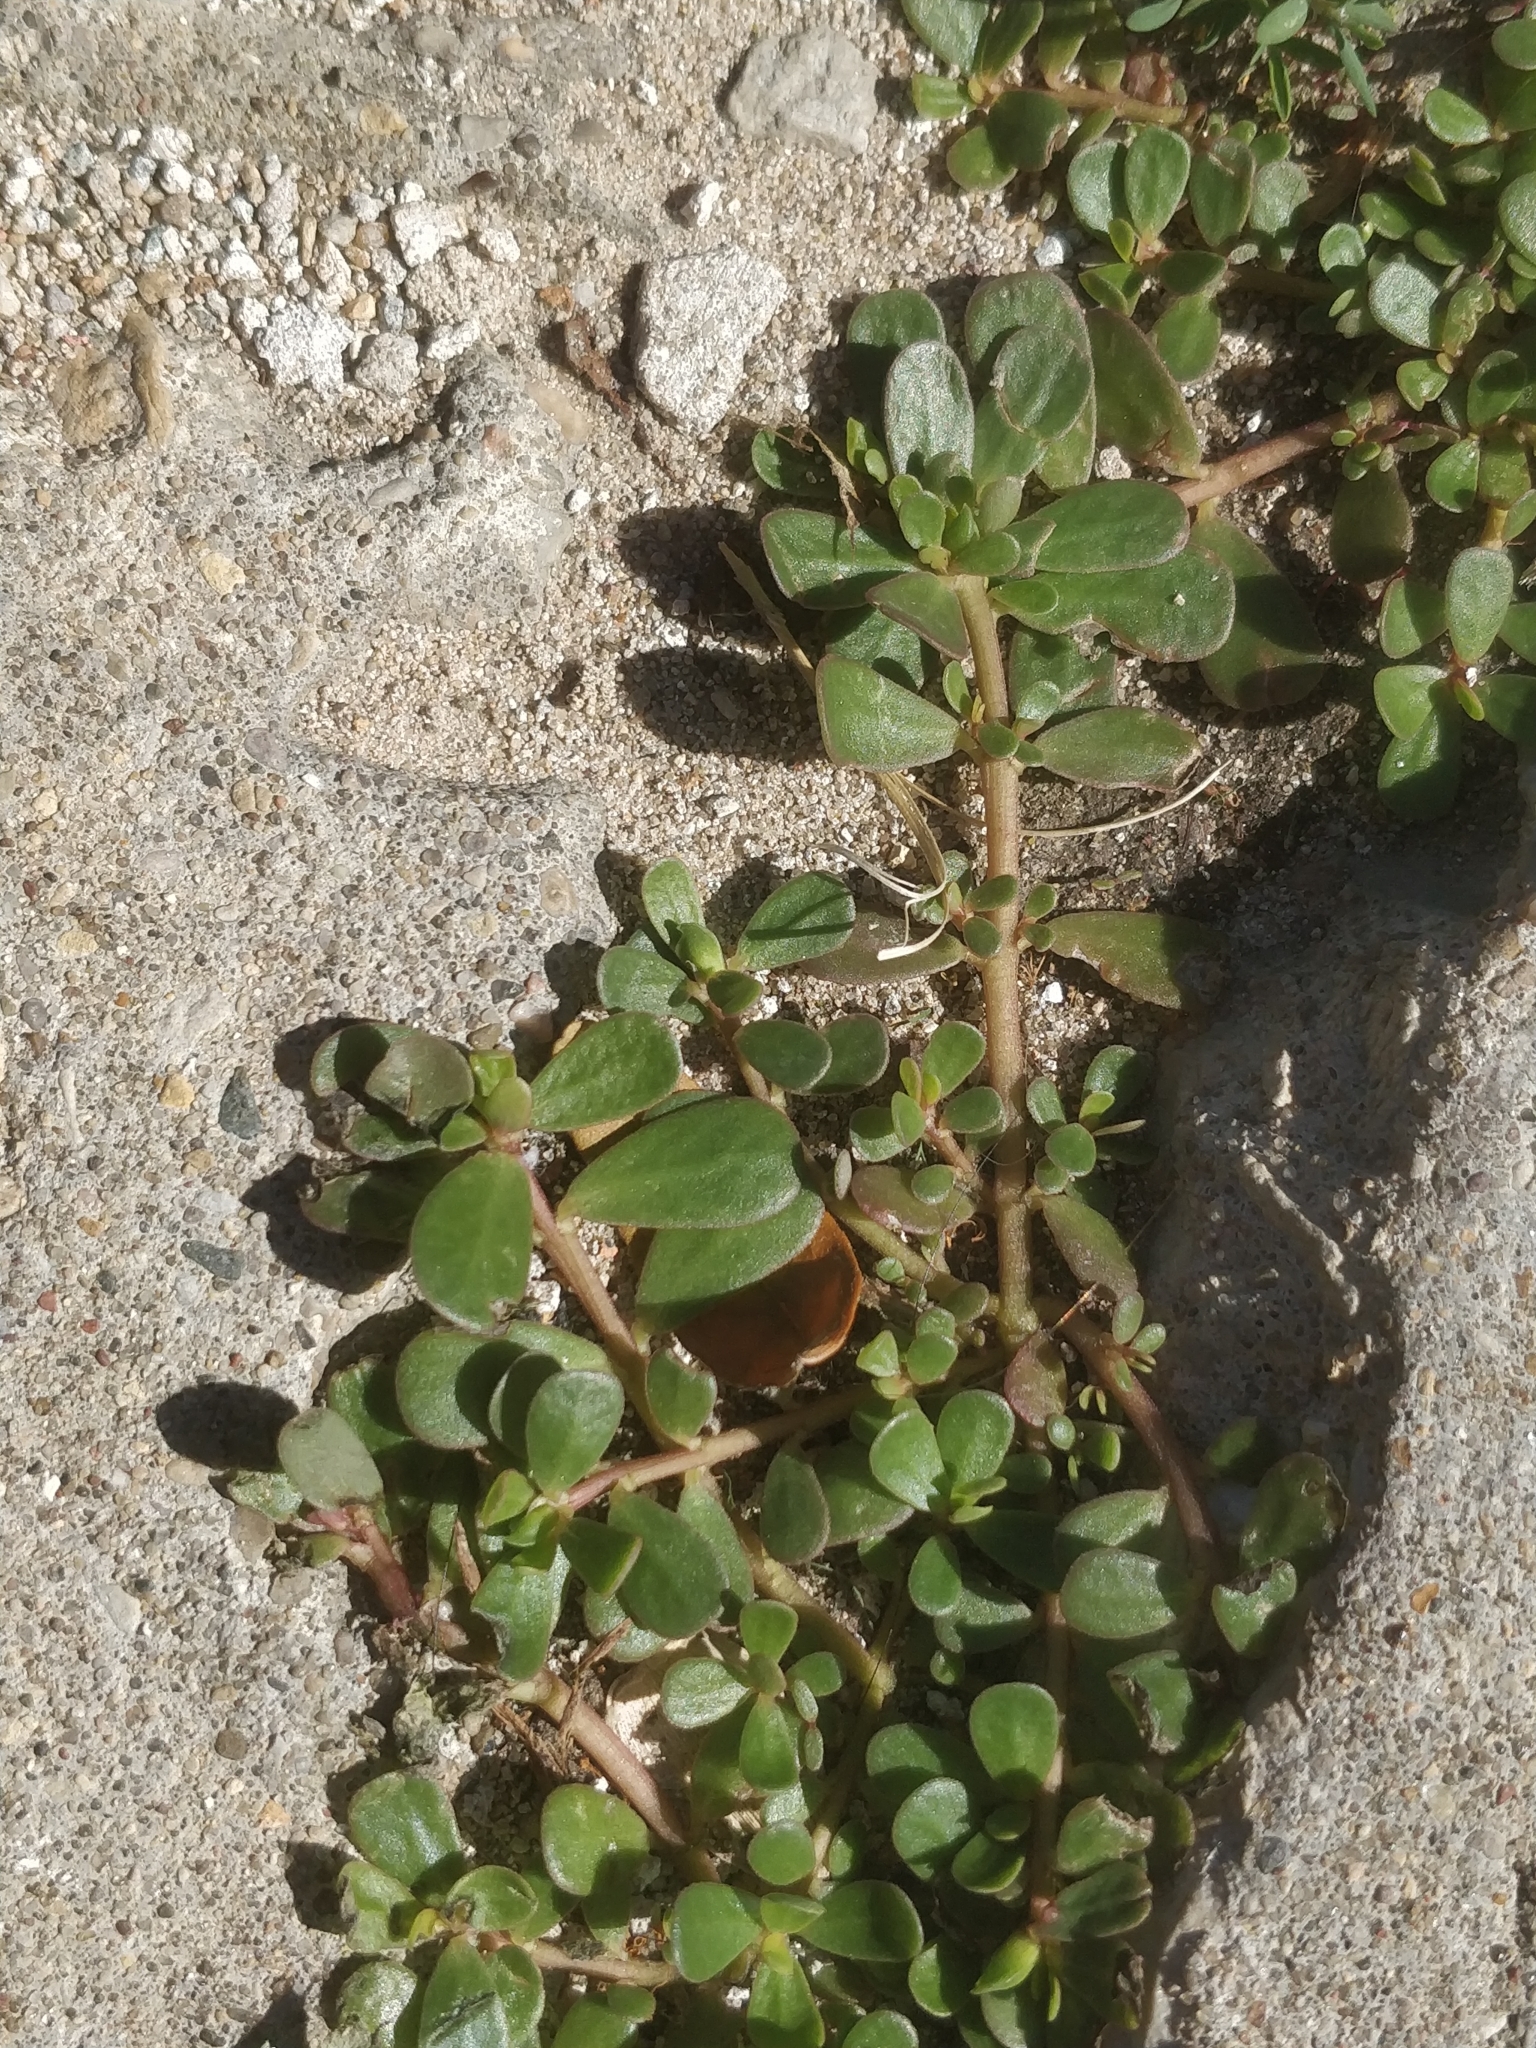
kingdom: Plantae
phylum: Tracheophyta
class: Magnoliopsida
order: Caryophyllales
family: Portulacaceae
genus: Portulaca
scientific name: Portulaca oleracea
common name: Common purslane
